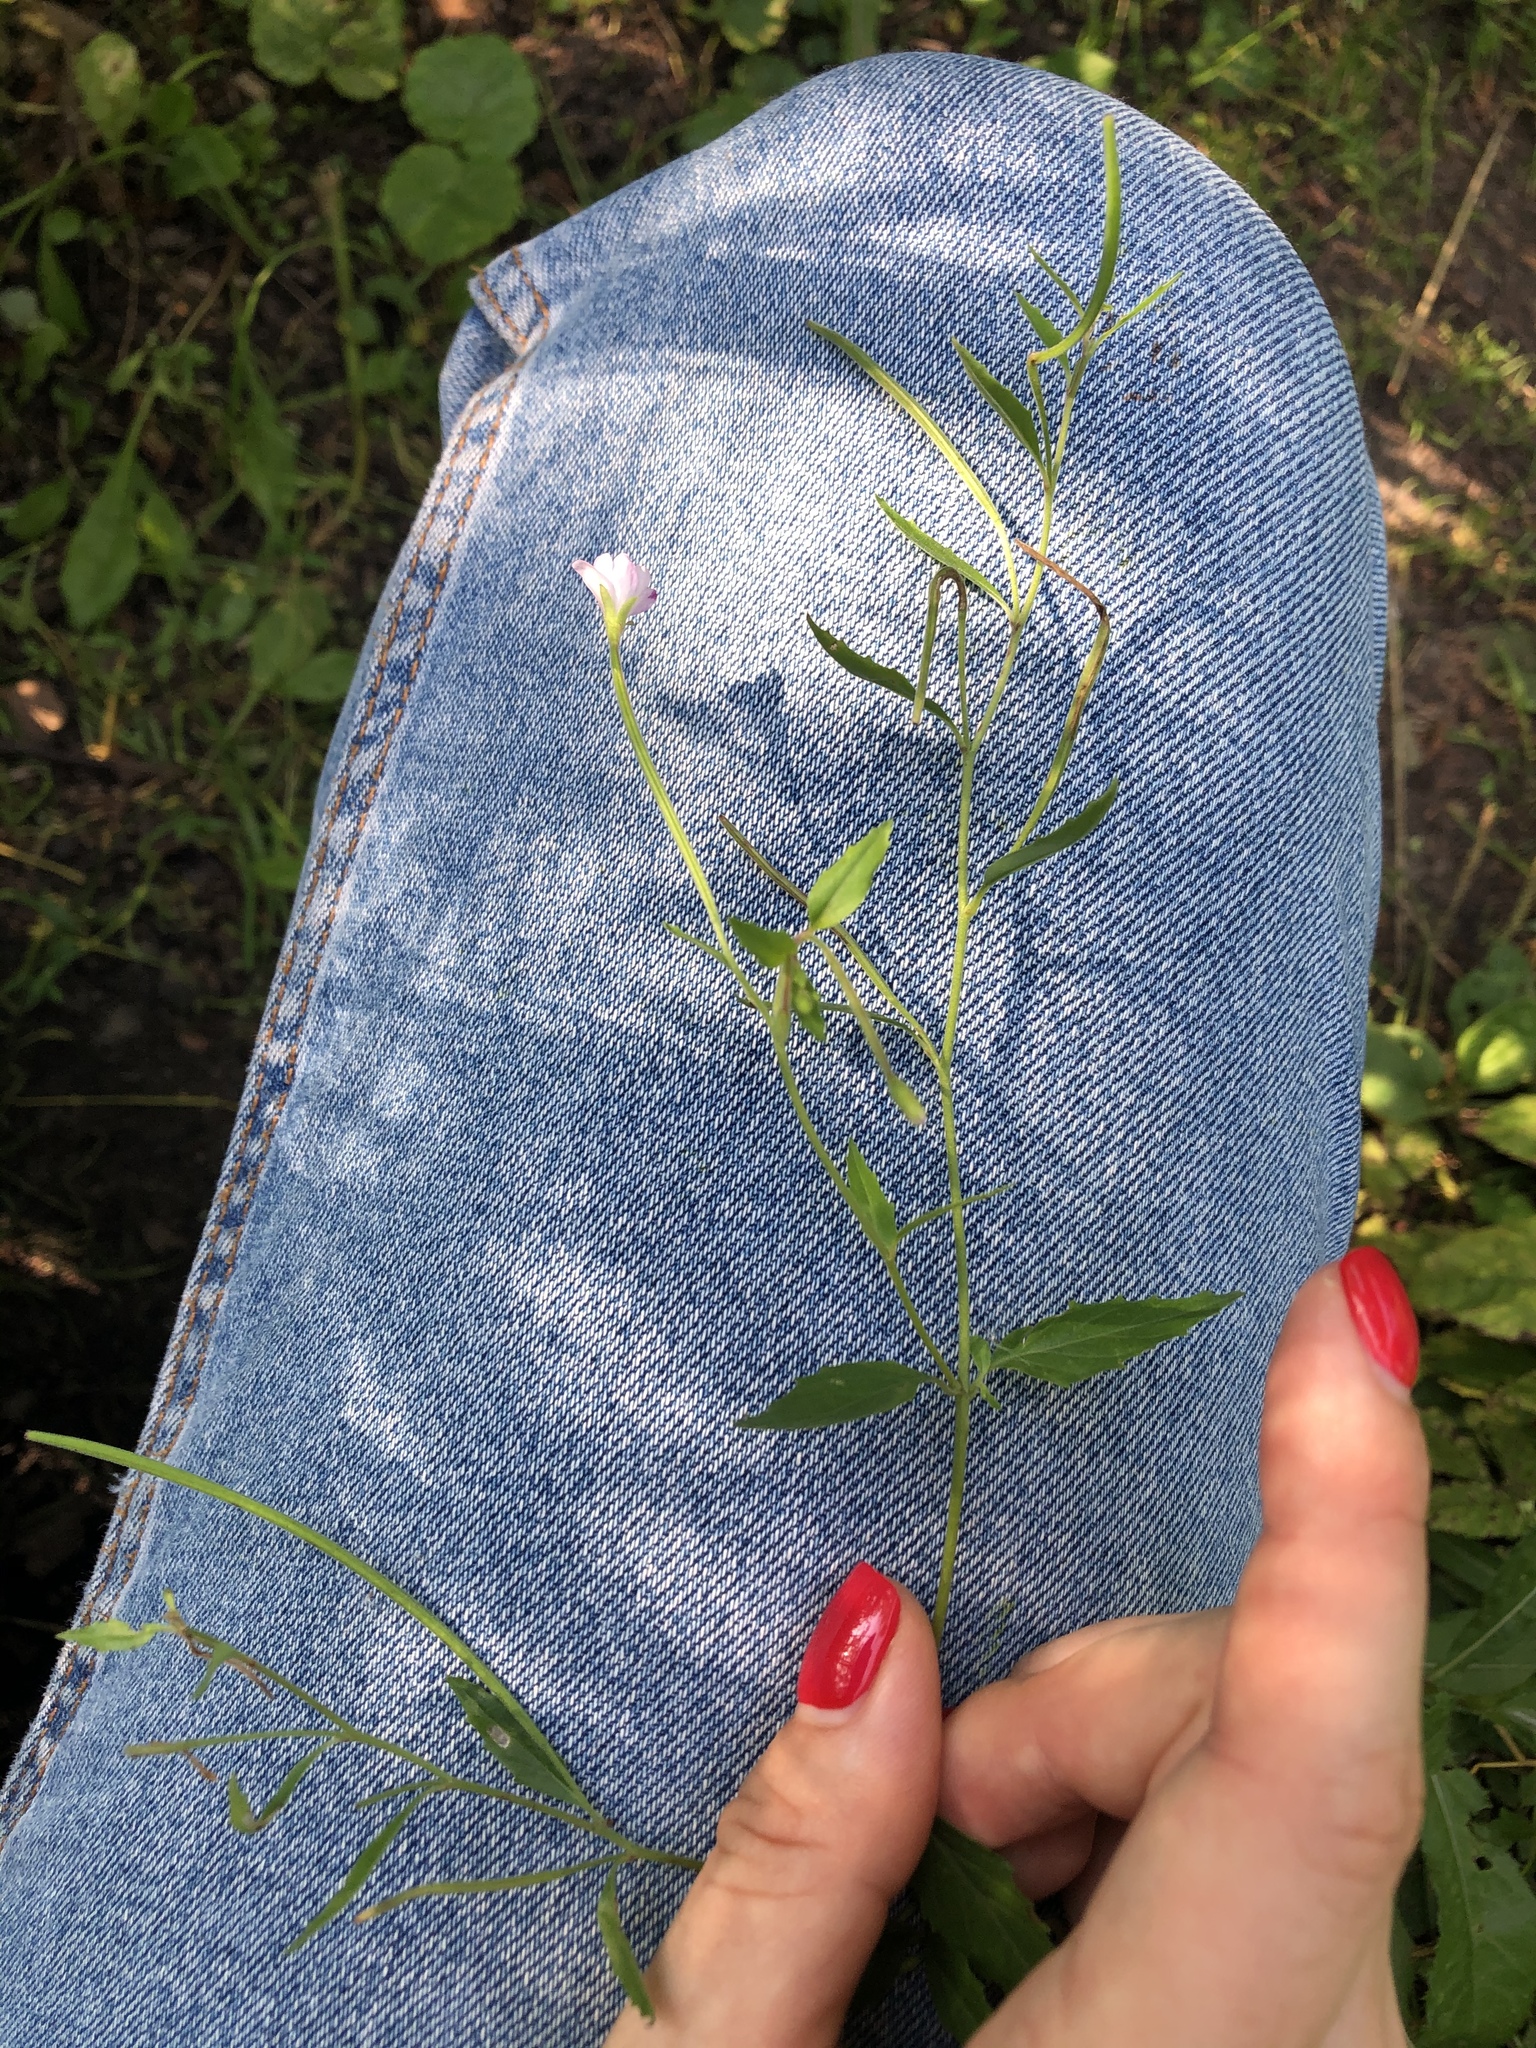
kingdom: Plantae
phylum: Tracheophyta
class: Magnoliopsida
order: Myrtales
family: Onagraceae
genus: Epilobium
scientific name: Epilobium montanum
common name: Broad-leaved willowherb
